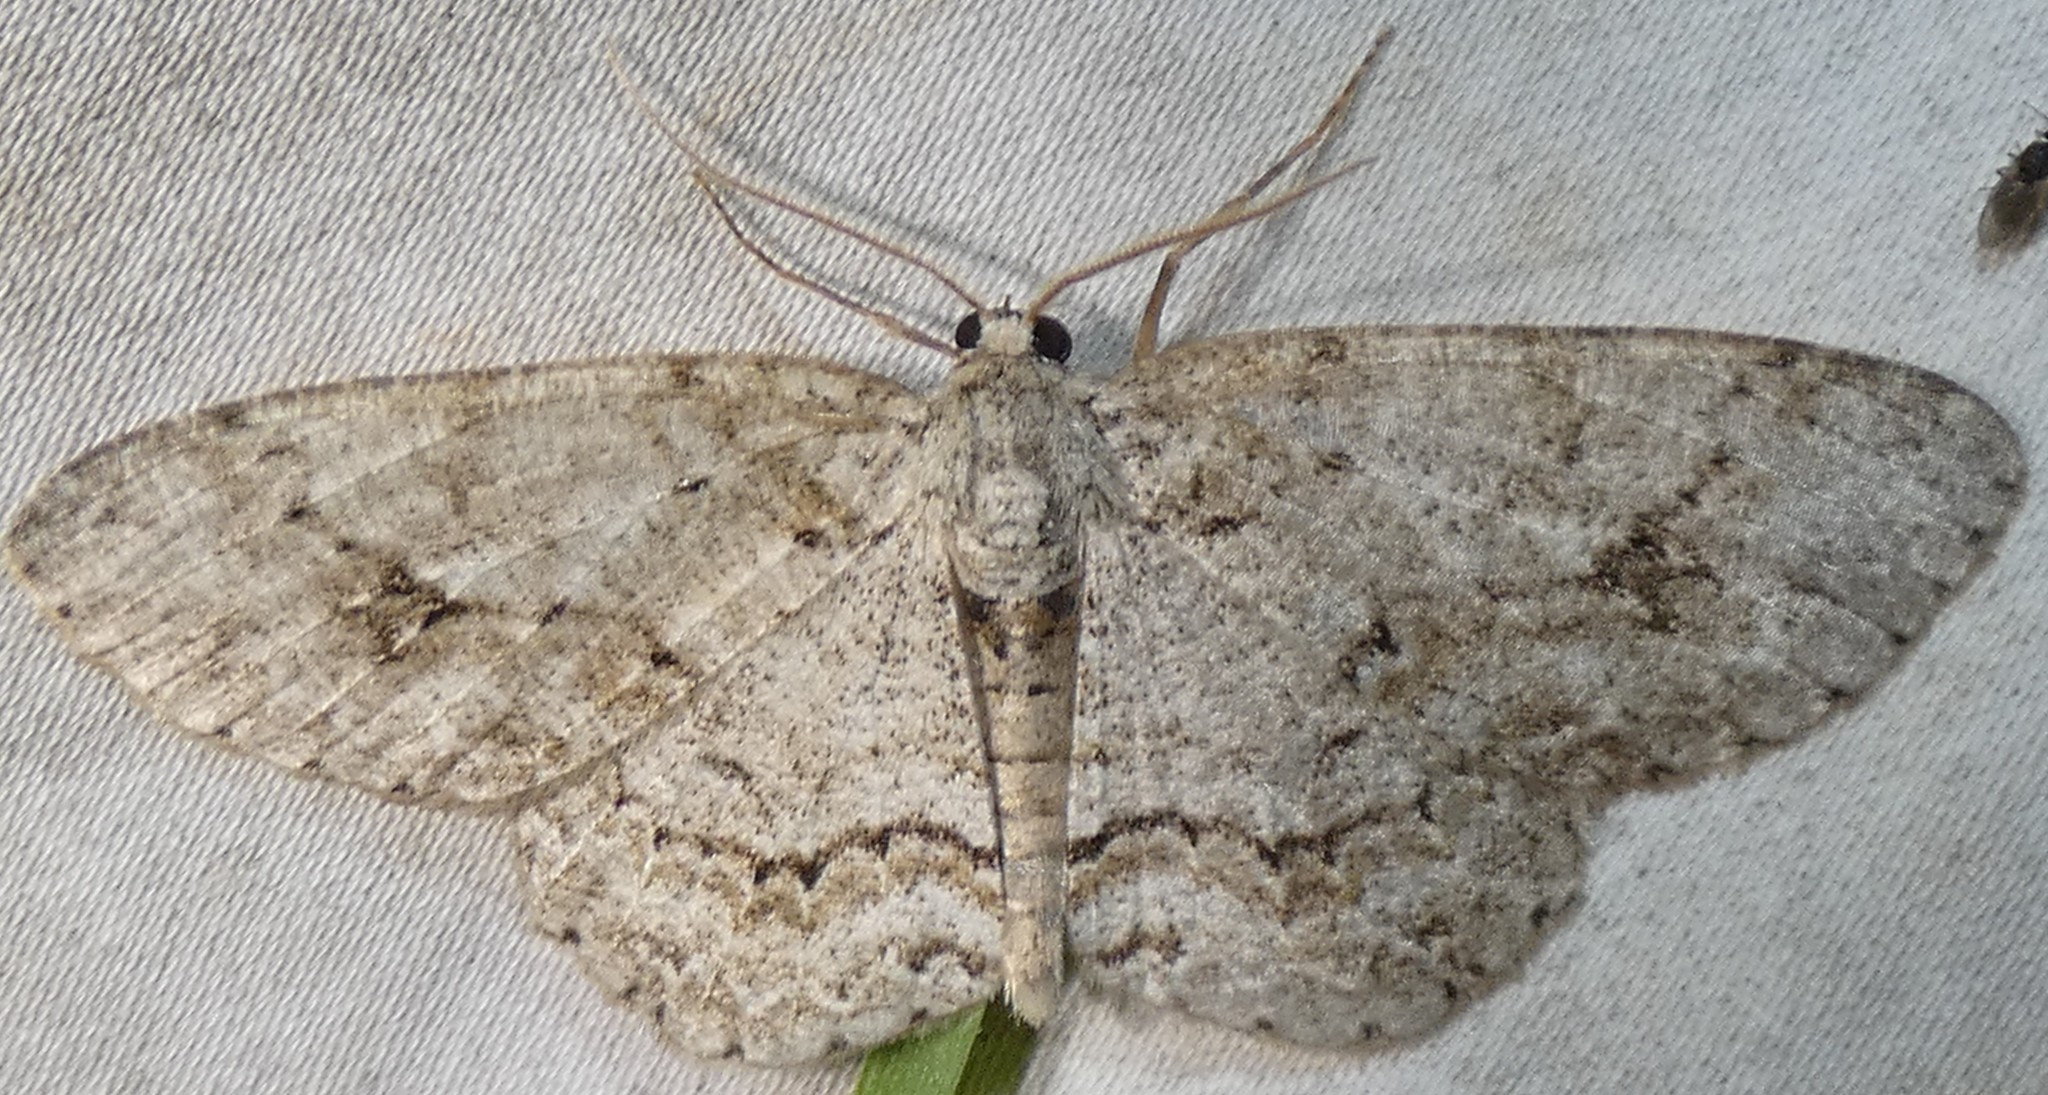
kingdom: Animalia
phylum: Arthropoda
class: Insecta
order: Lepidoptera
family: Geometridae
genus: Ectropis
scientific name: Ectropis crepuscularia
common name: Engrailed
